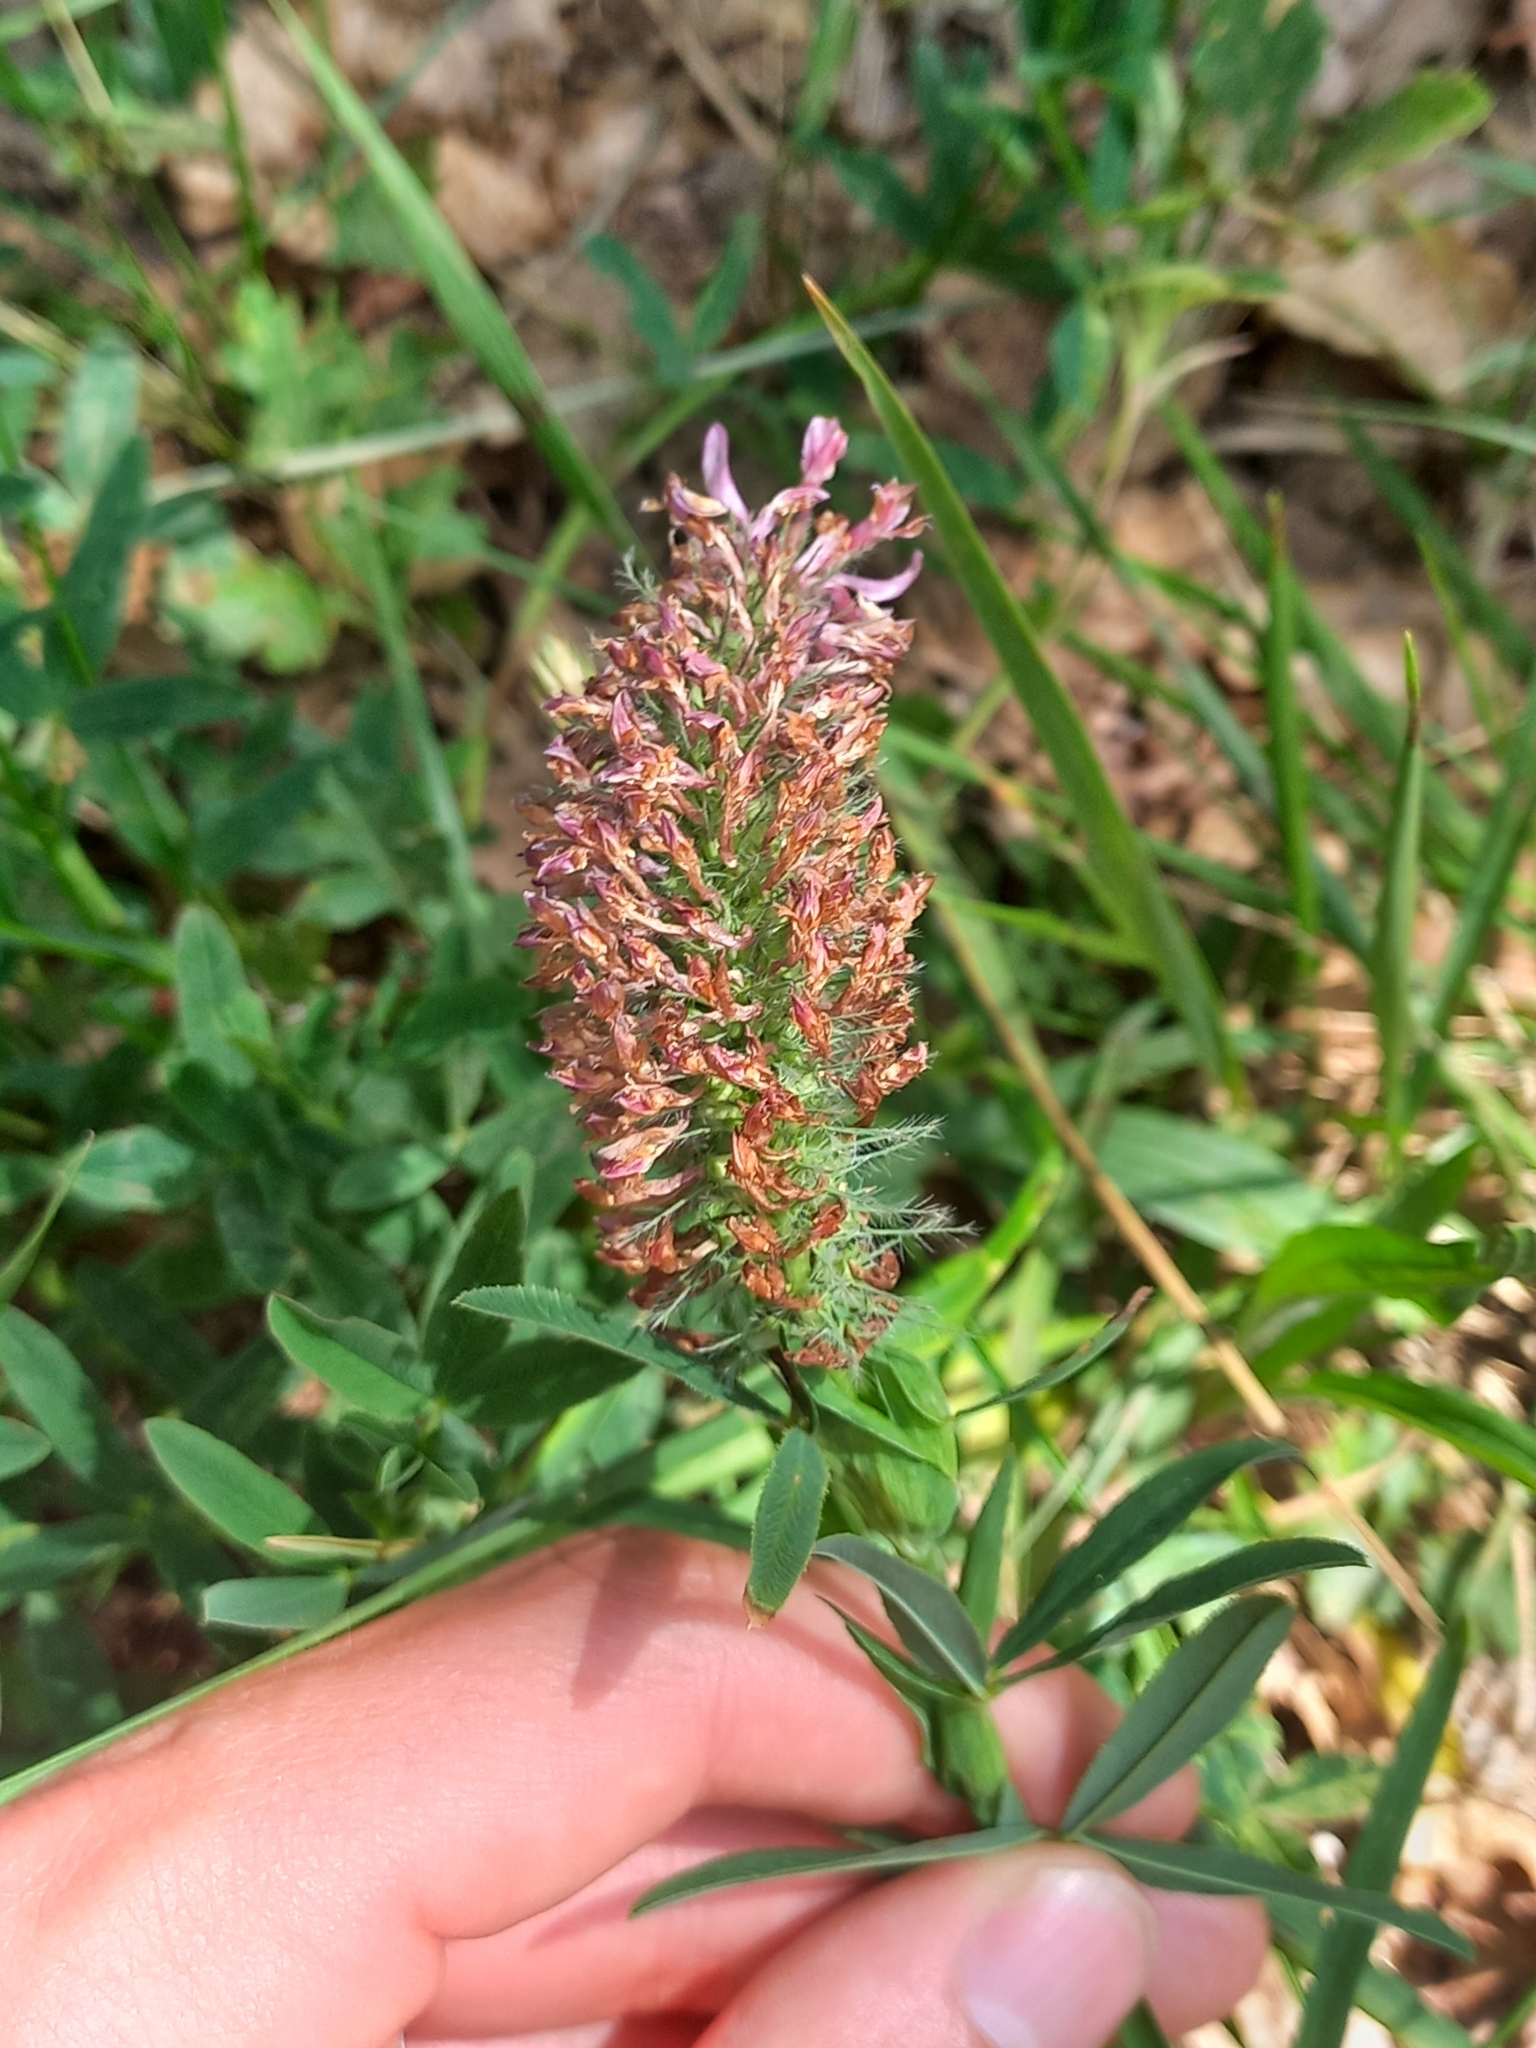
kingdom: Plantae
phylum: Tracheophyta
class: Magnoliopsida
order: Fabales
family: Fabaceae
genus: Trifolium
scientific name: Trifolium rubens
